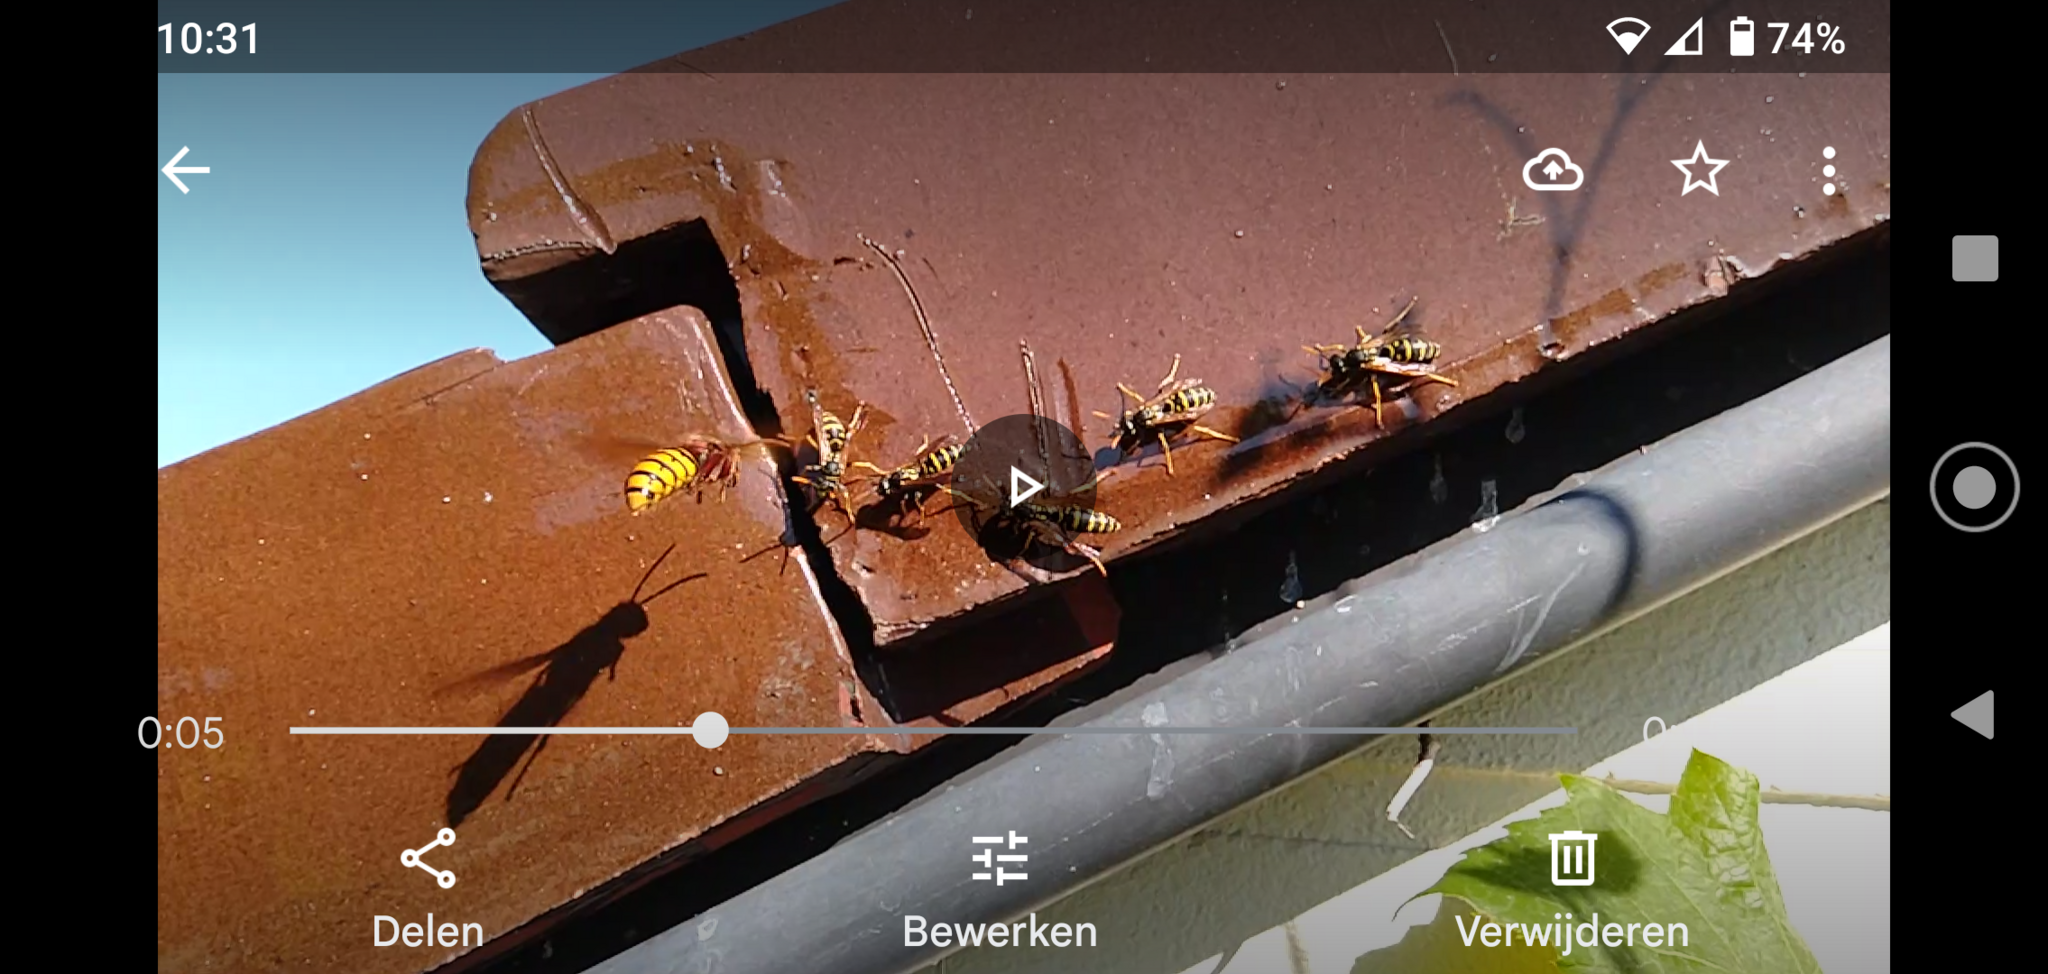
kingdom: Animalia
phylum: Arthropoda
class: Insecta
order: Hymenoptera
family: Vespidae
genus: Vespa
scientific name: Vespa crabro
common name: Hornet
